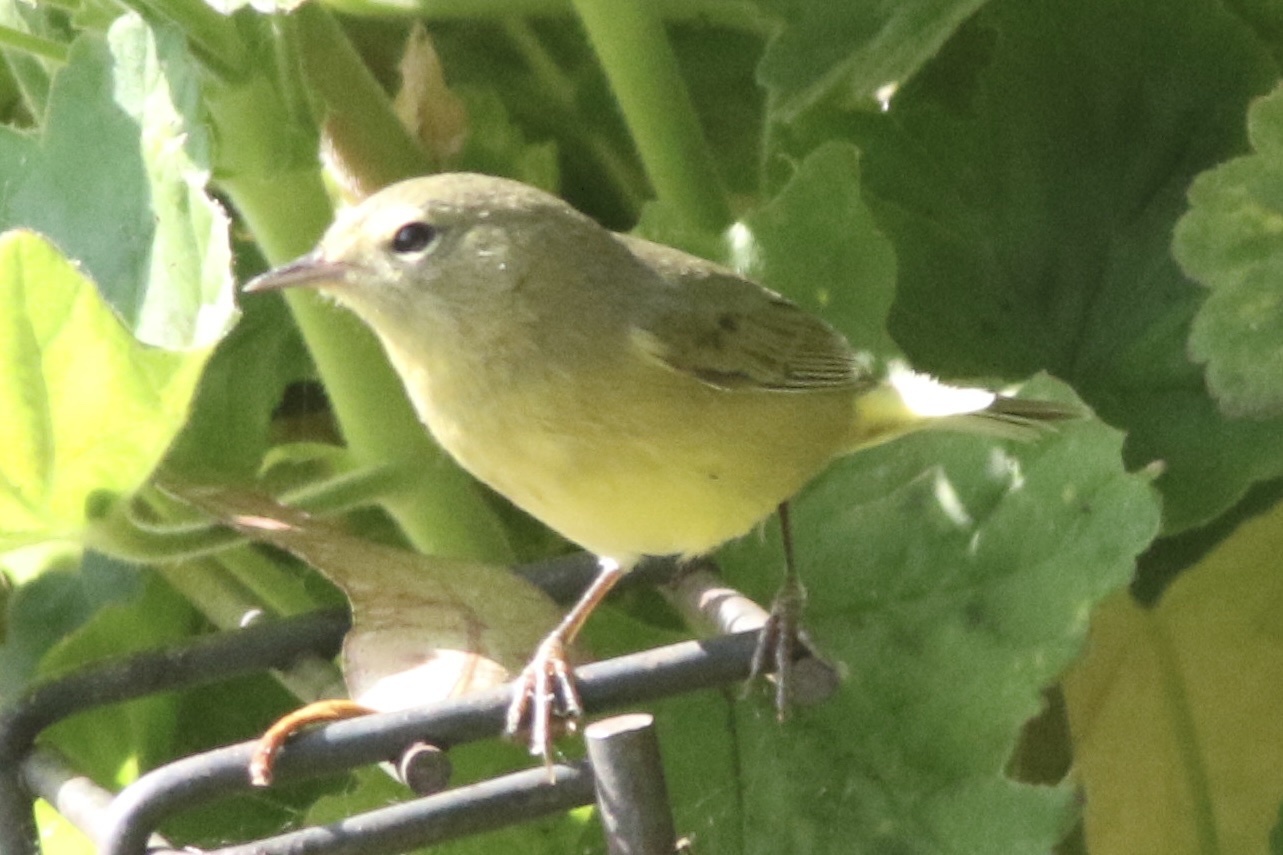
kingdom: Animalia
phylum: Chordata
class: Aves
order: Passeriformes
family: Parulidae
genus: Leiothlypis
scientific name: Leiothlypis celata
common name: Orange-crowned warbler
